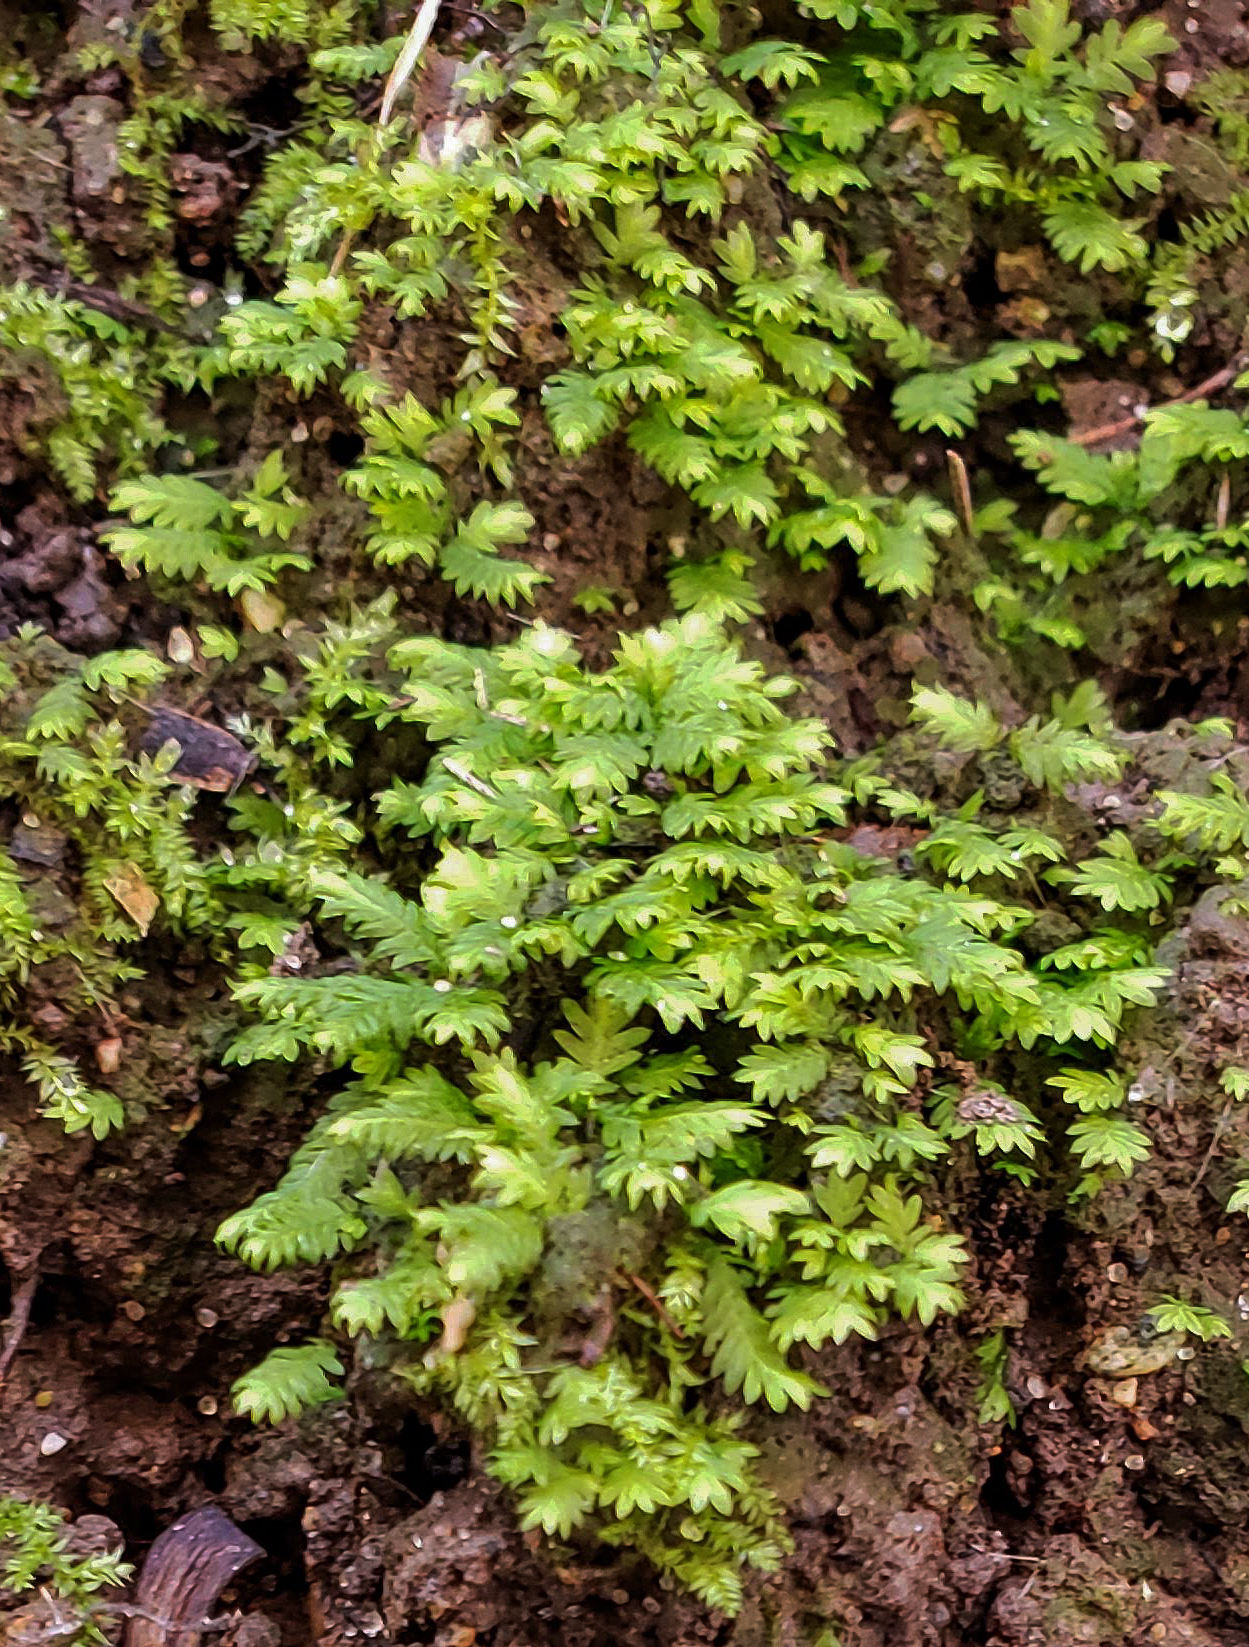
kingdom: Plantae
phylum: Bryophyta
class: Bryopsida
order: Dicranales
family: Fissidentaceae
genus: Fissidens
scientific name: Fissidens subbasilaris
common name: Tree pocket moss
